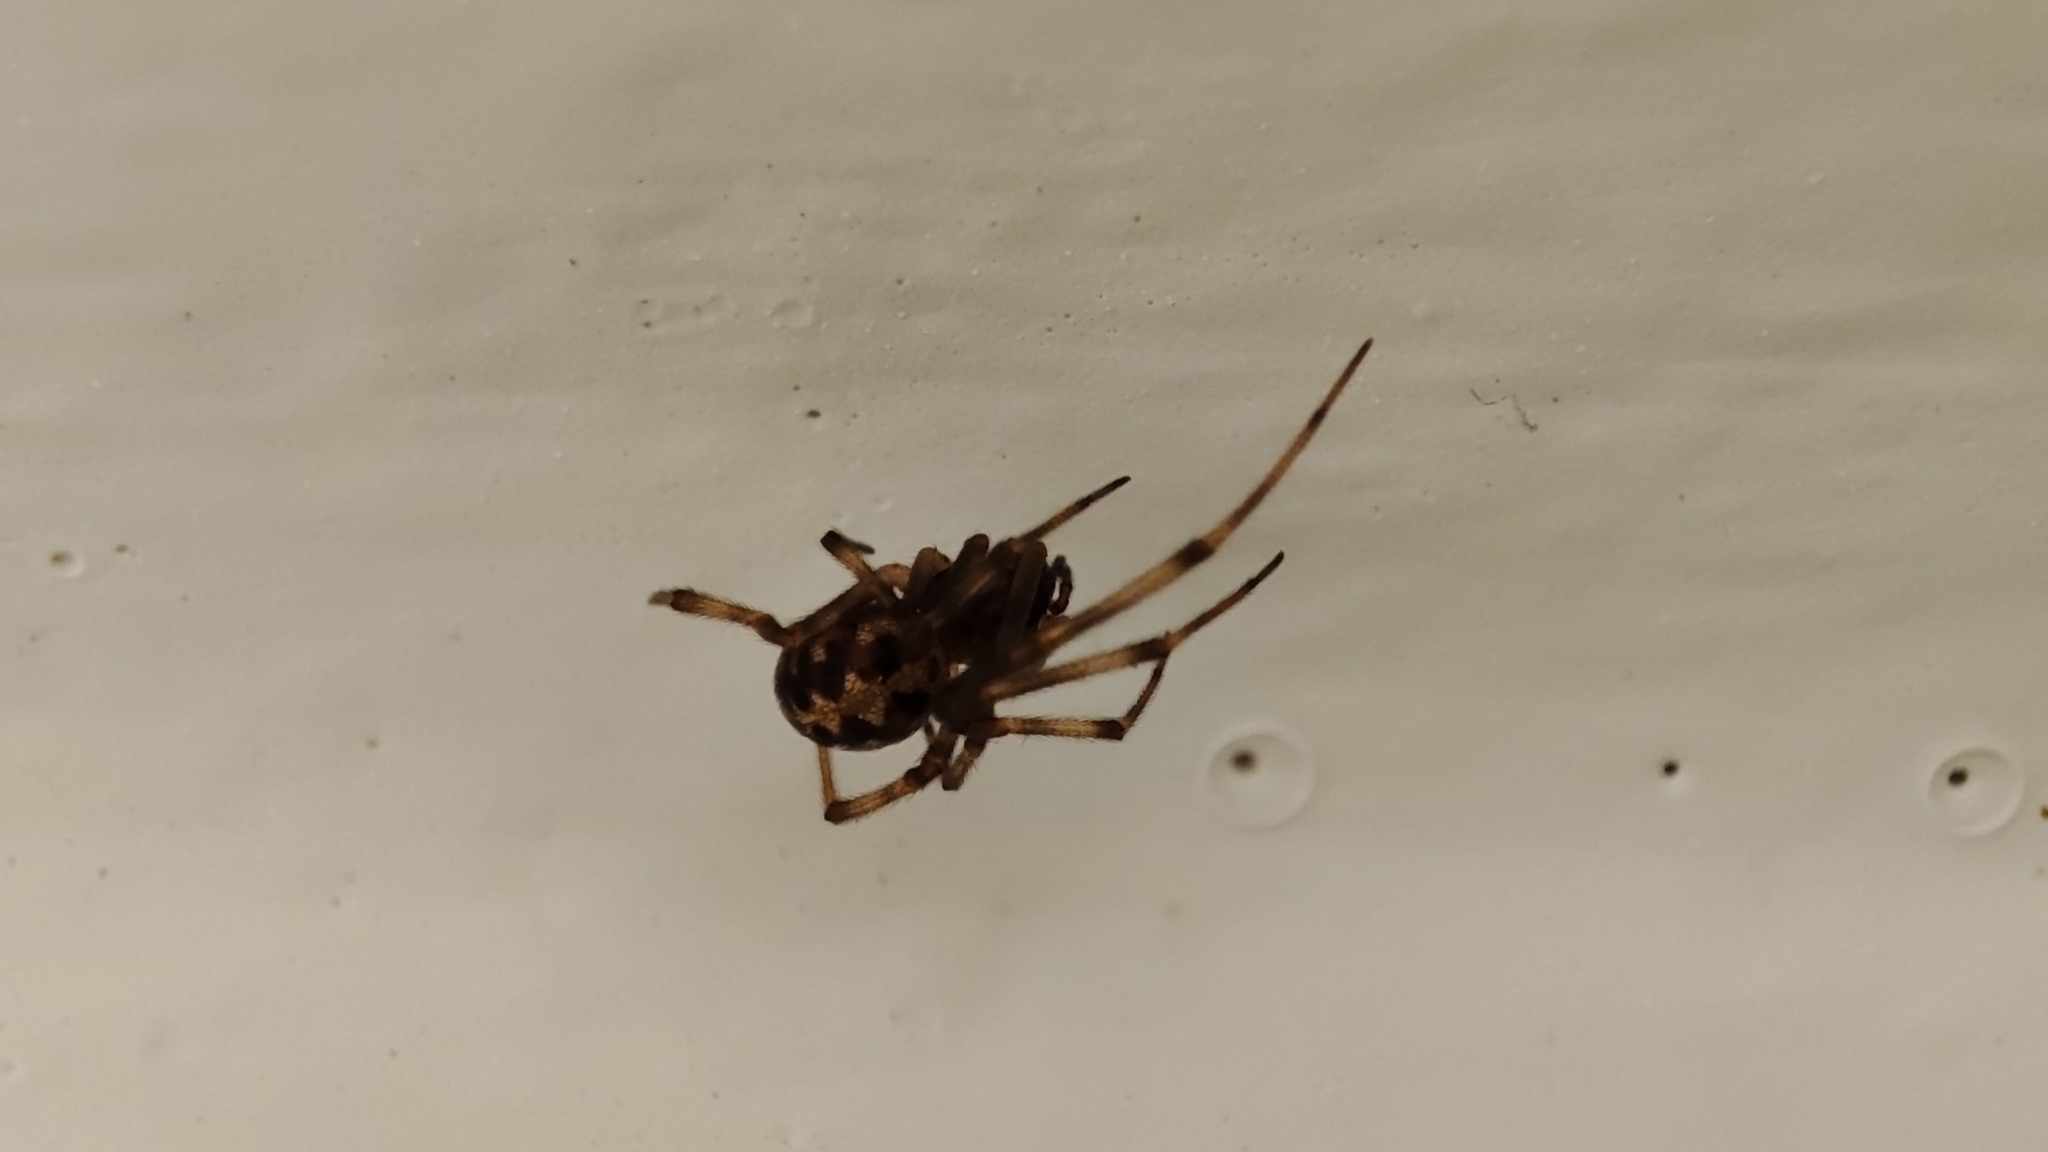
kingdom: Animalia
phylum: Arthropoda
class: Arachnida
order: Araneae
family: Theridiidae
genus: Steatoda
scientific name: Steatoda triangulosa
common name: Triangulate bud spider
